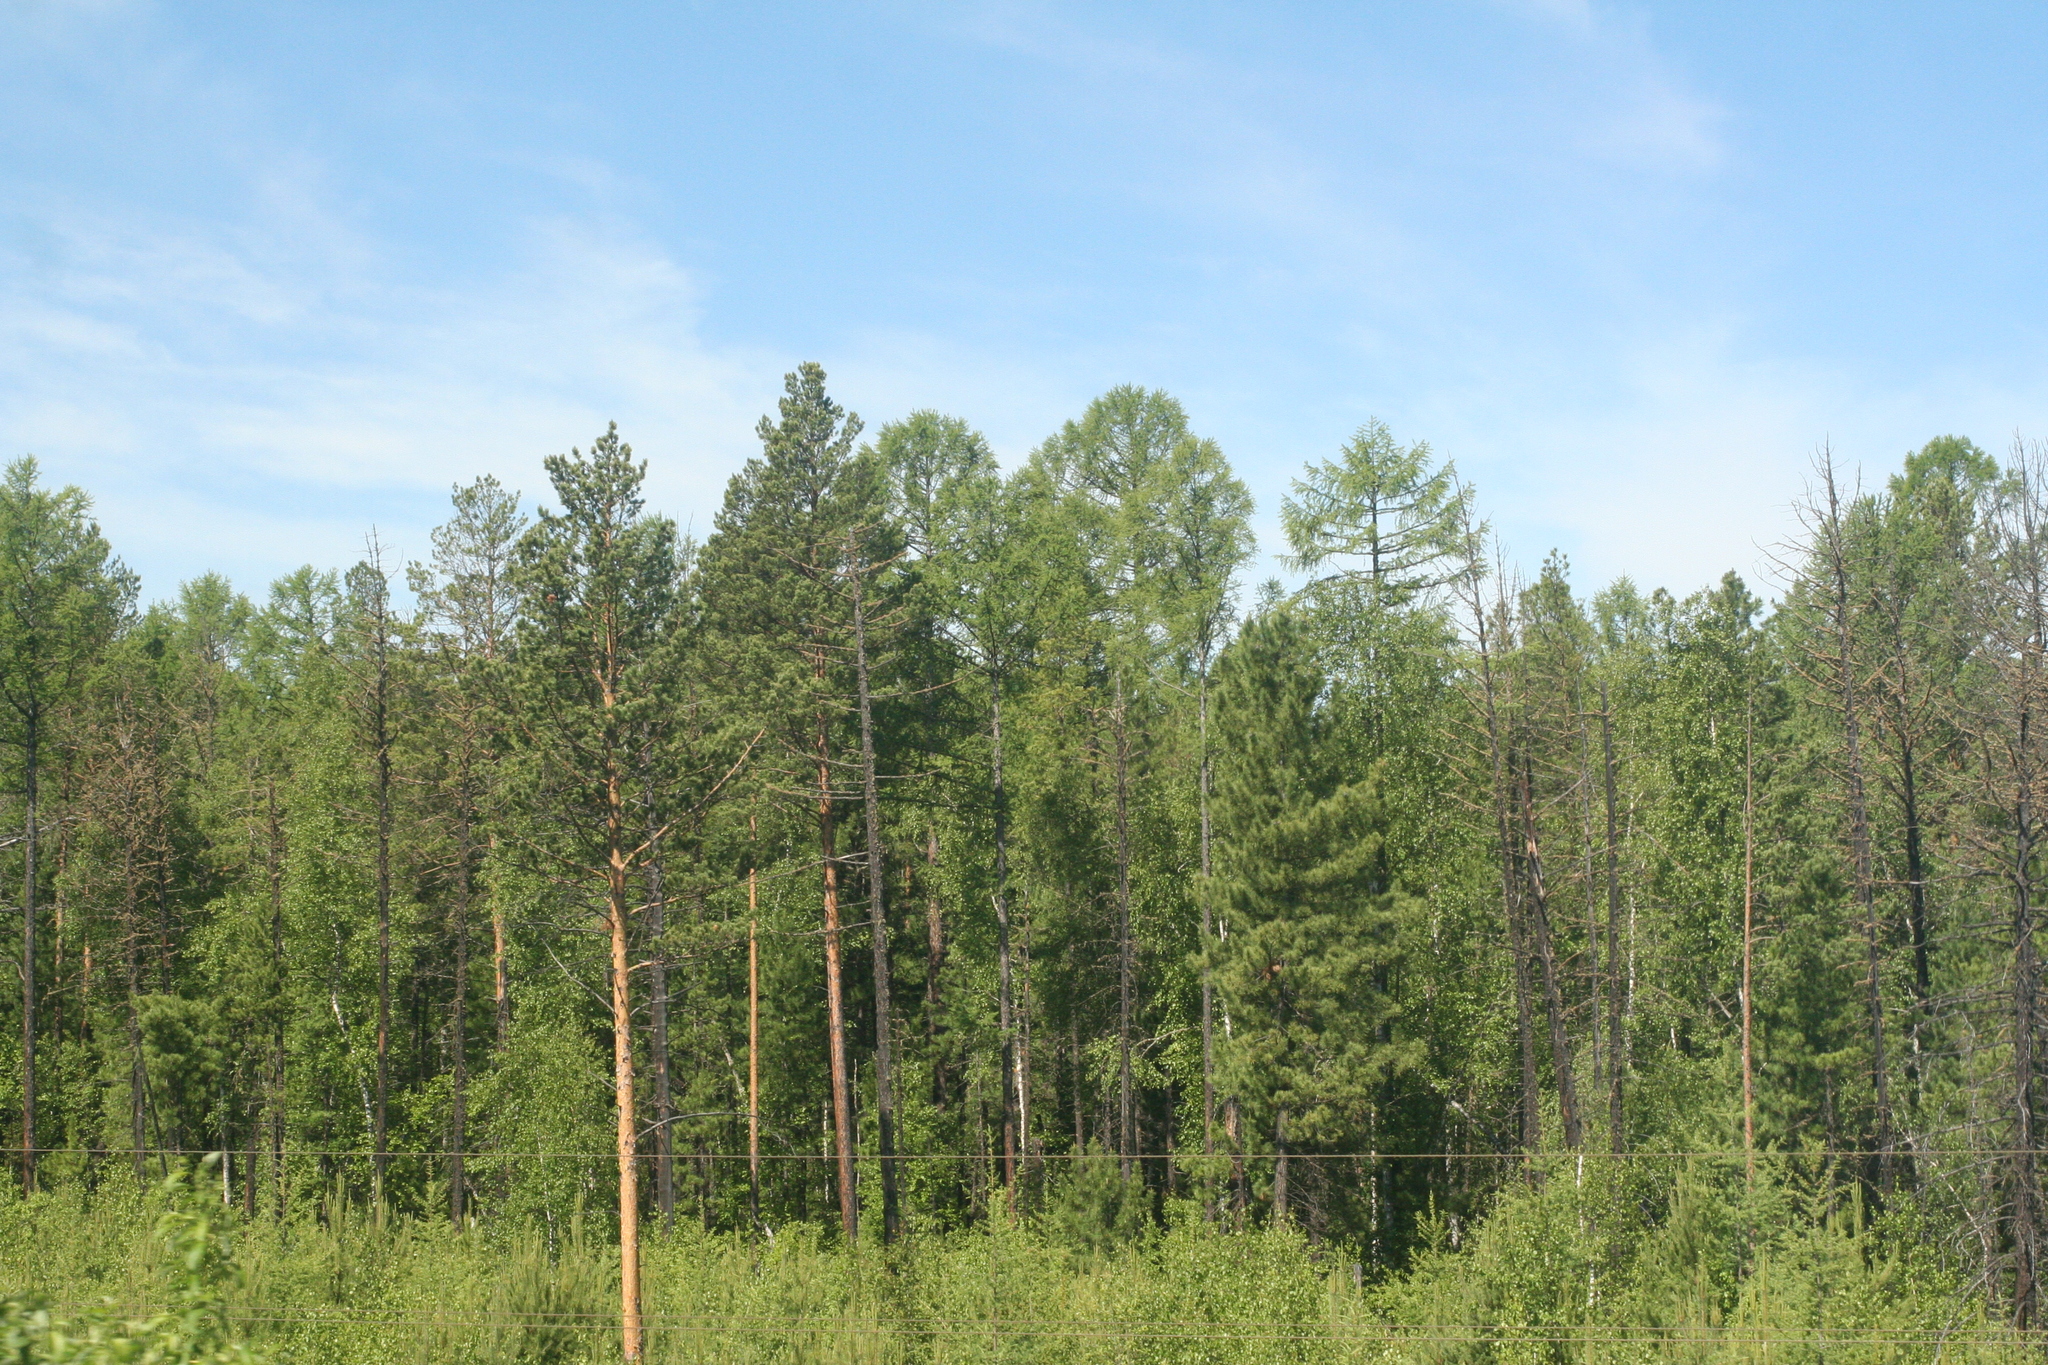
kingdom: Plantae
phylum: Tracheophyta
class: Pinopsida
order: Pinales
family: Pinaceae
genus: Larix
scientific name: Larix sibirica
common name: Siberian larch
